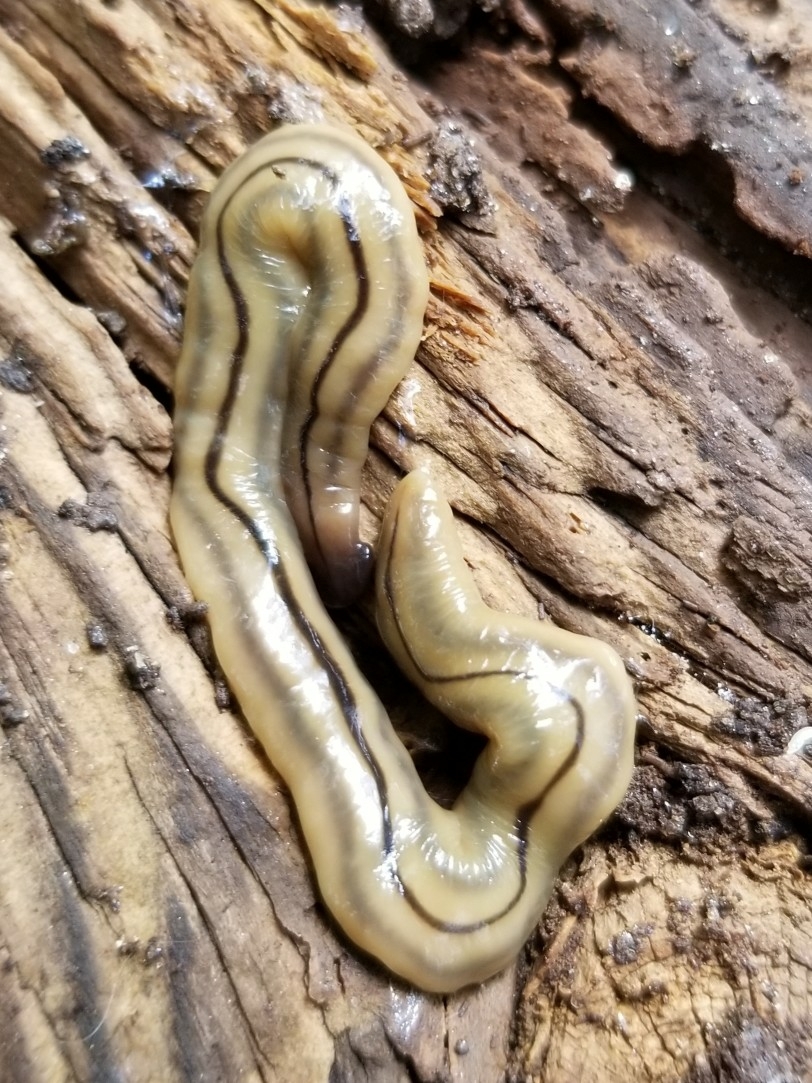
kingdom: Animalia
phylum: Platyhelminthes
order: Tricladida
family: Geoplanidae
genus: Bipalium
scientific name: Bipalium pennsylvanicum
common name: Three-lined land planarian
